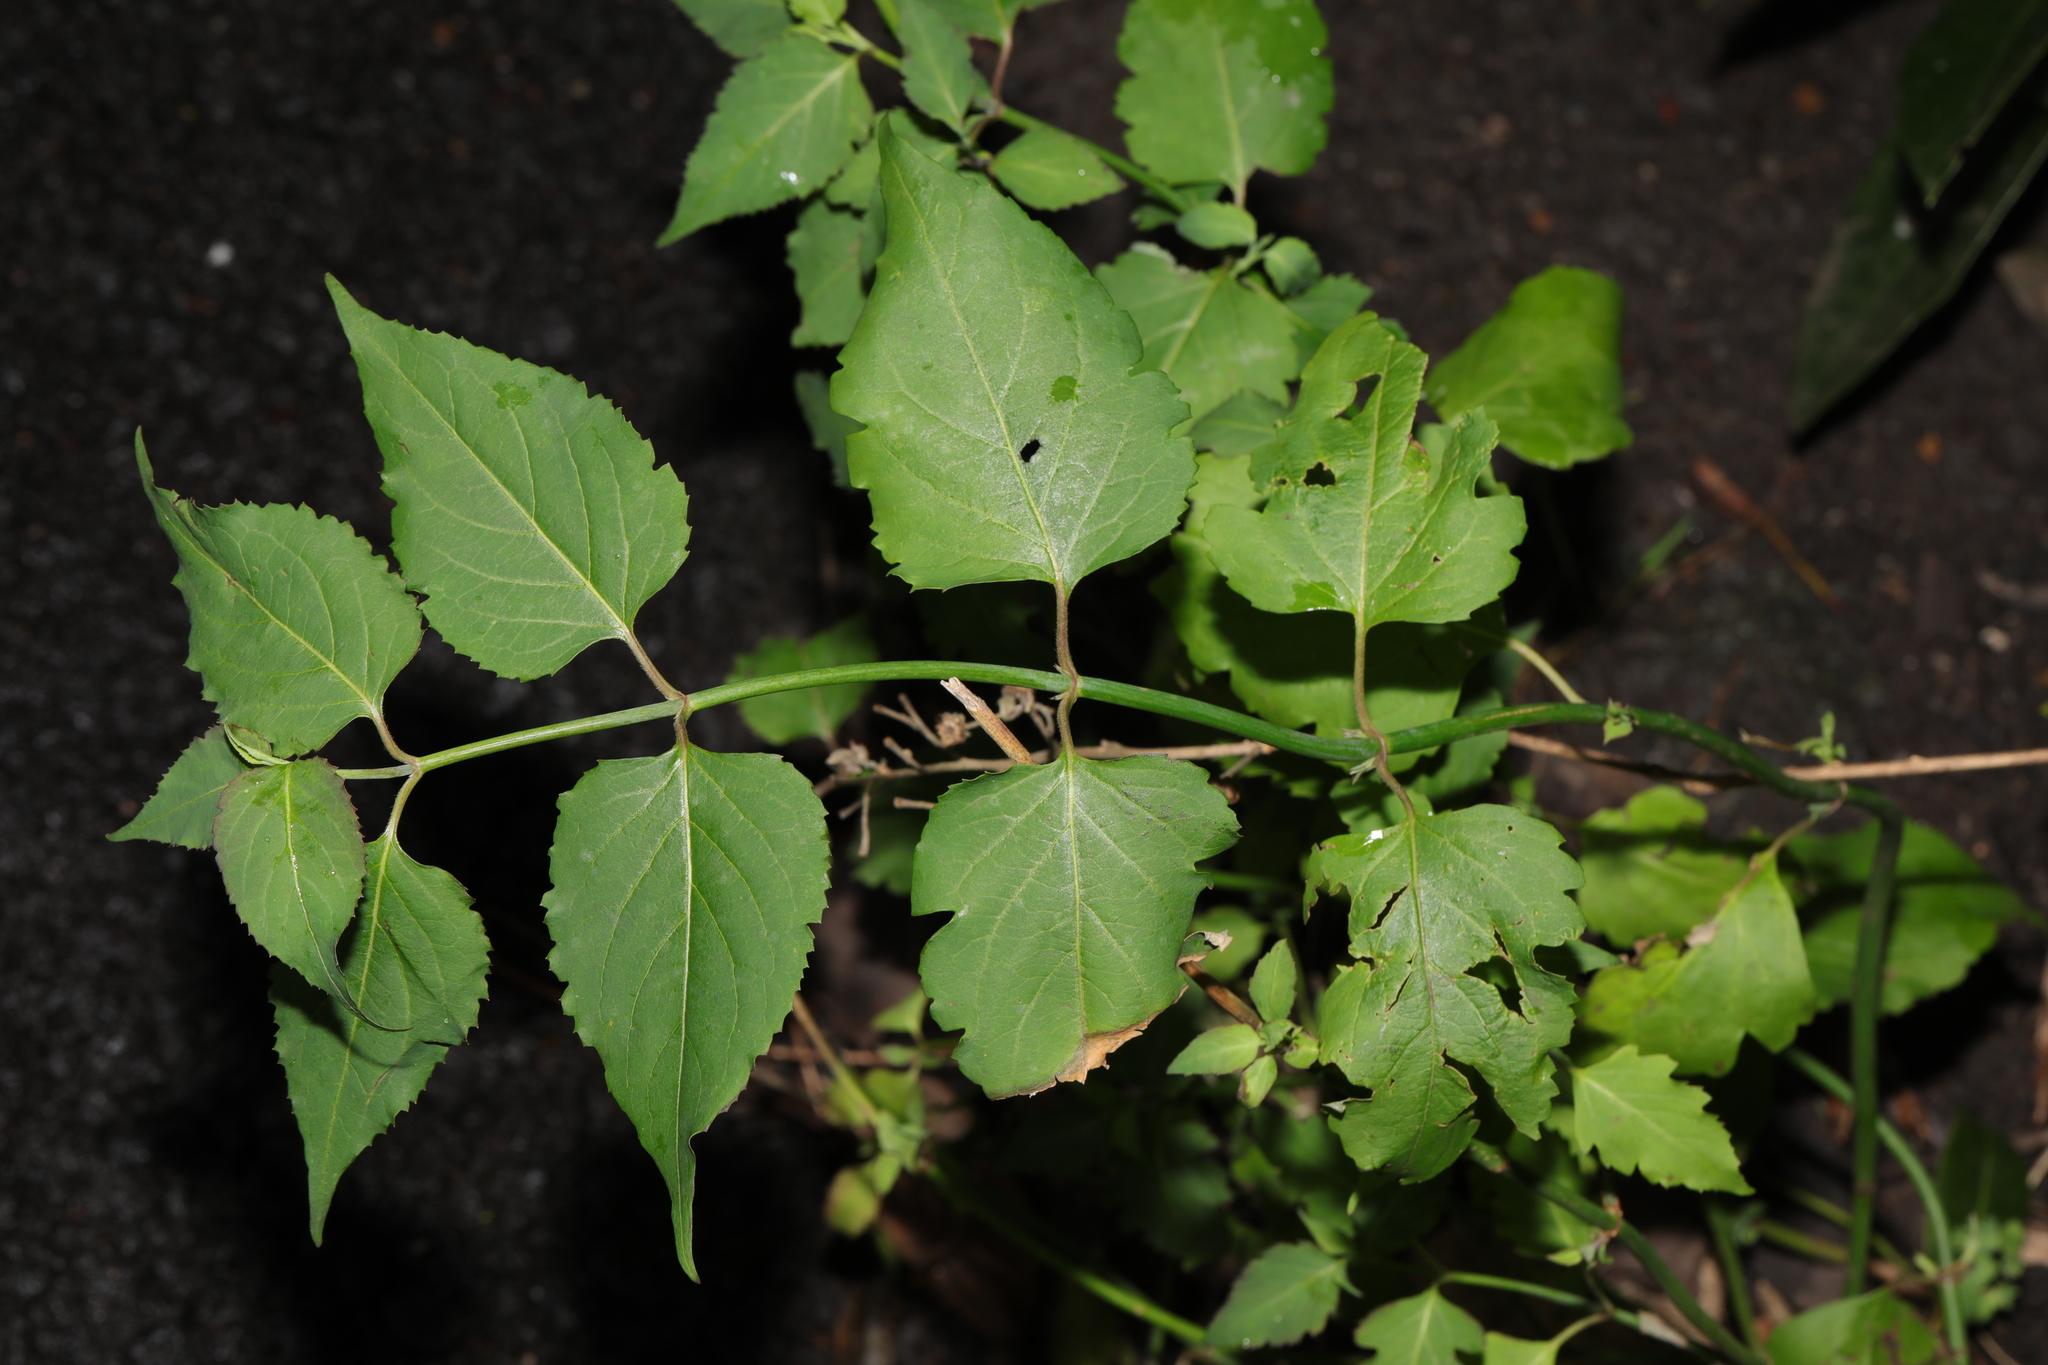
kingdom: Plantae
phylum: Tracheophyta
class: Magnoliopsida
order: Dipsacales
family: Caprifoliaceae
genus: Leycesteria
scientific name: Leycesteria formosa
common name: Himalayan honeysuckle
